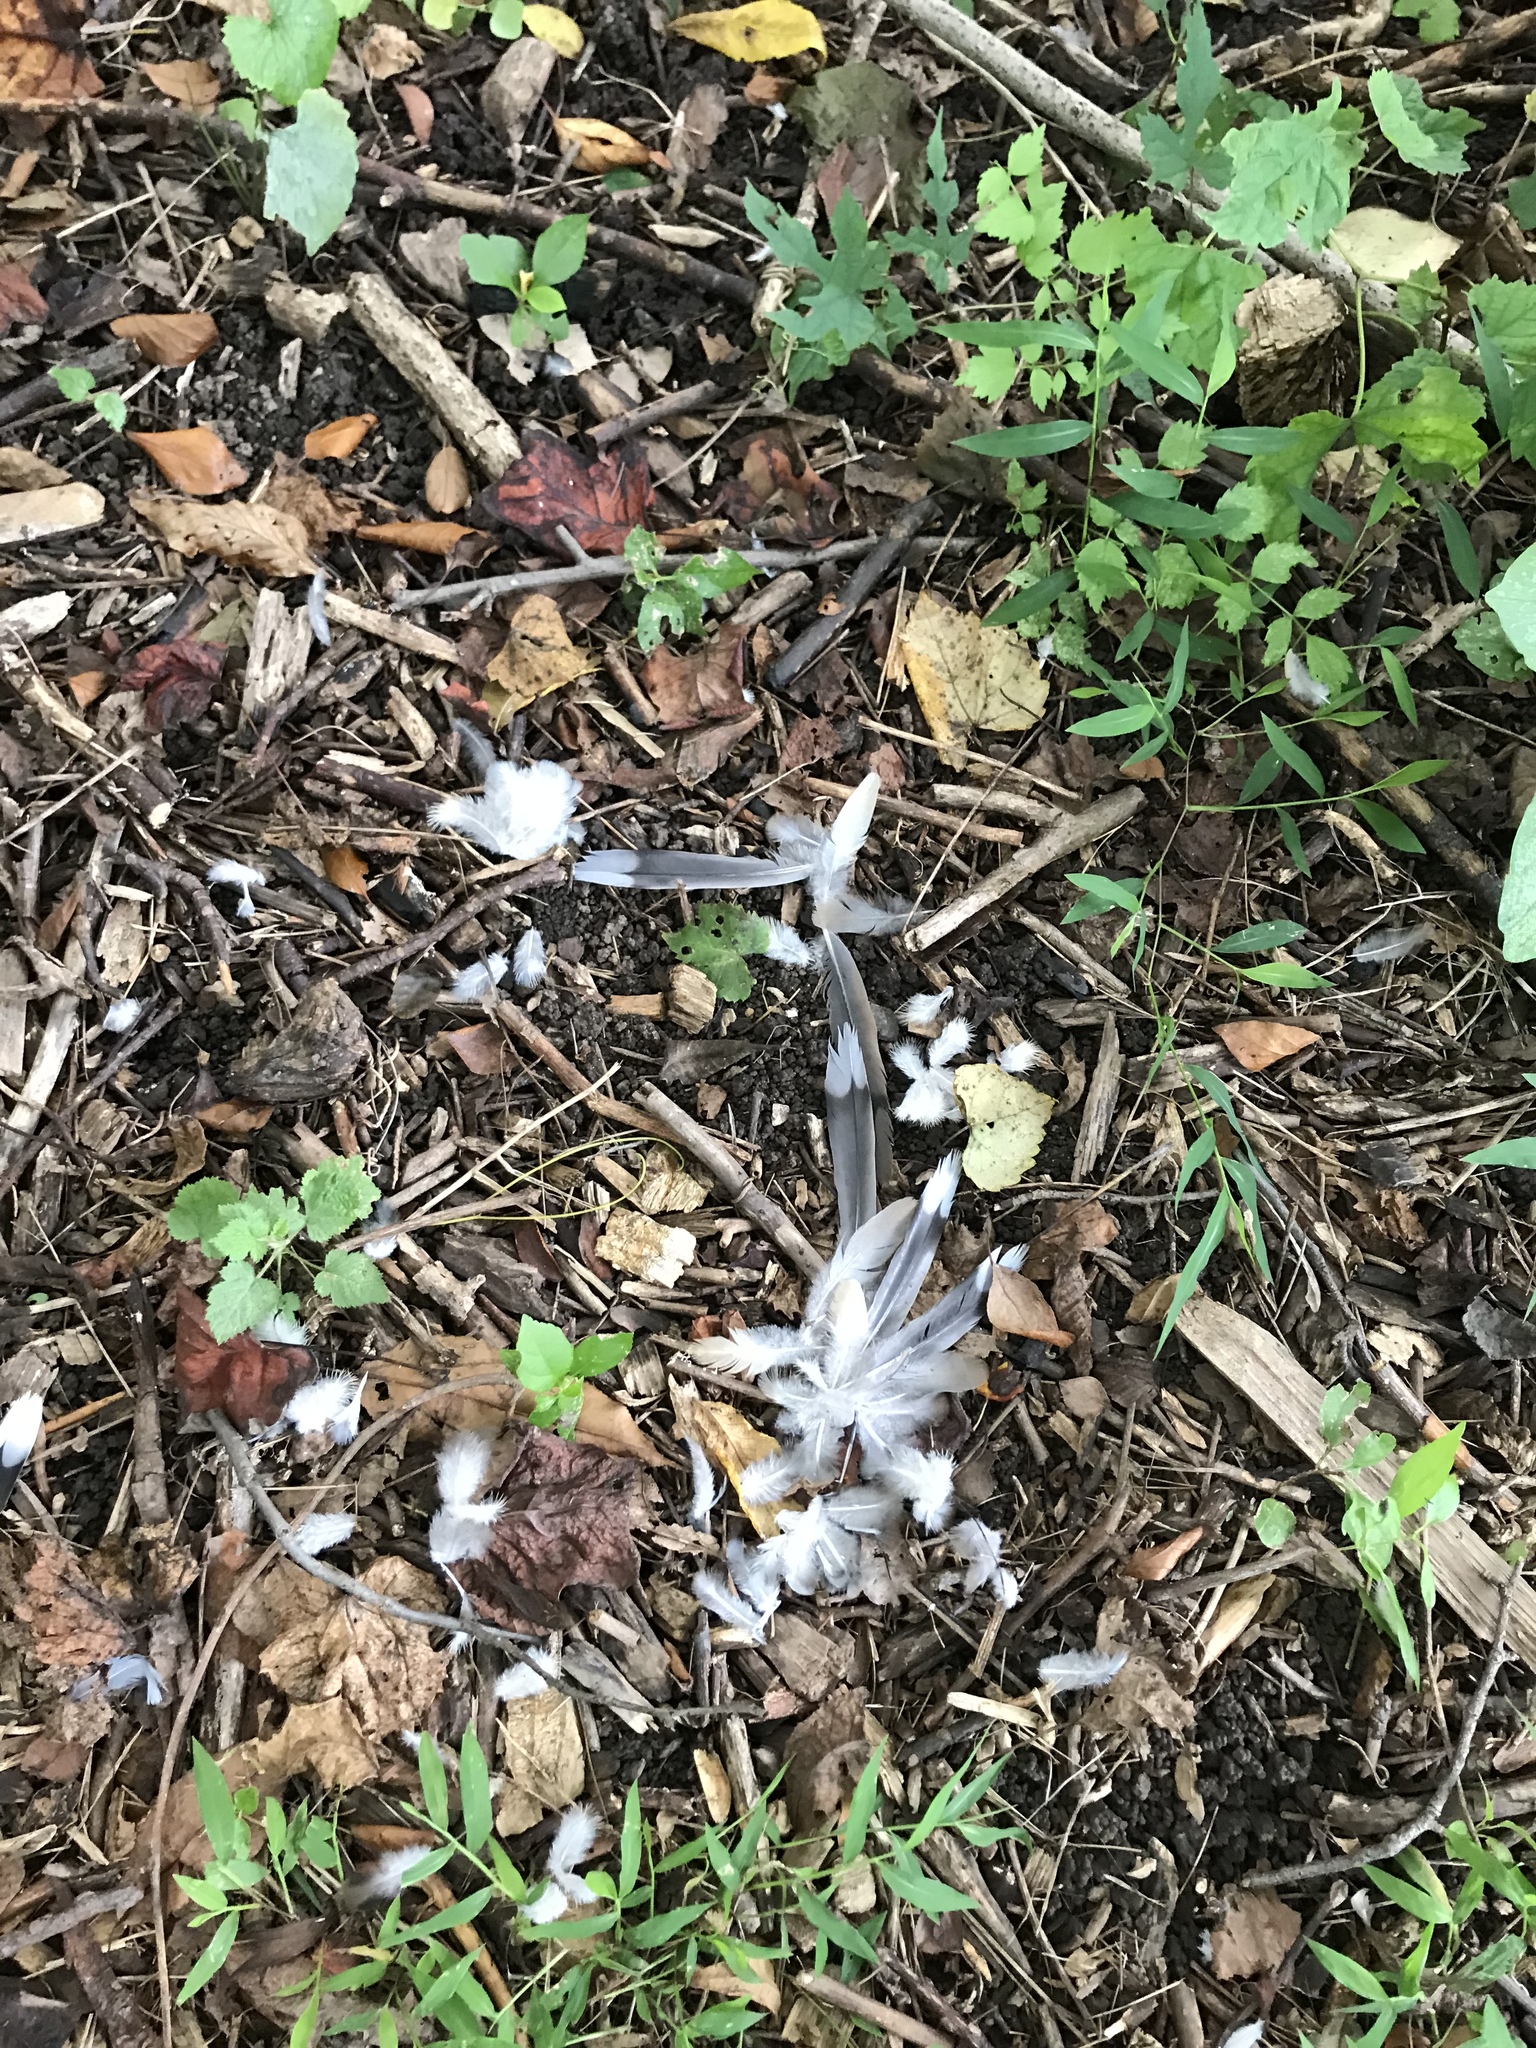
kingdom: Animalia
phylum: Chordata
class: Aves
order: Columbiformes
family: Columbidae
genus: Zenaida
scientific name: Zenaida macroura
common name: Mourning dove
